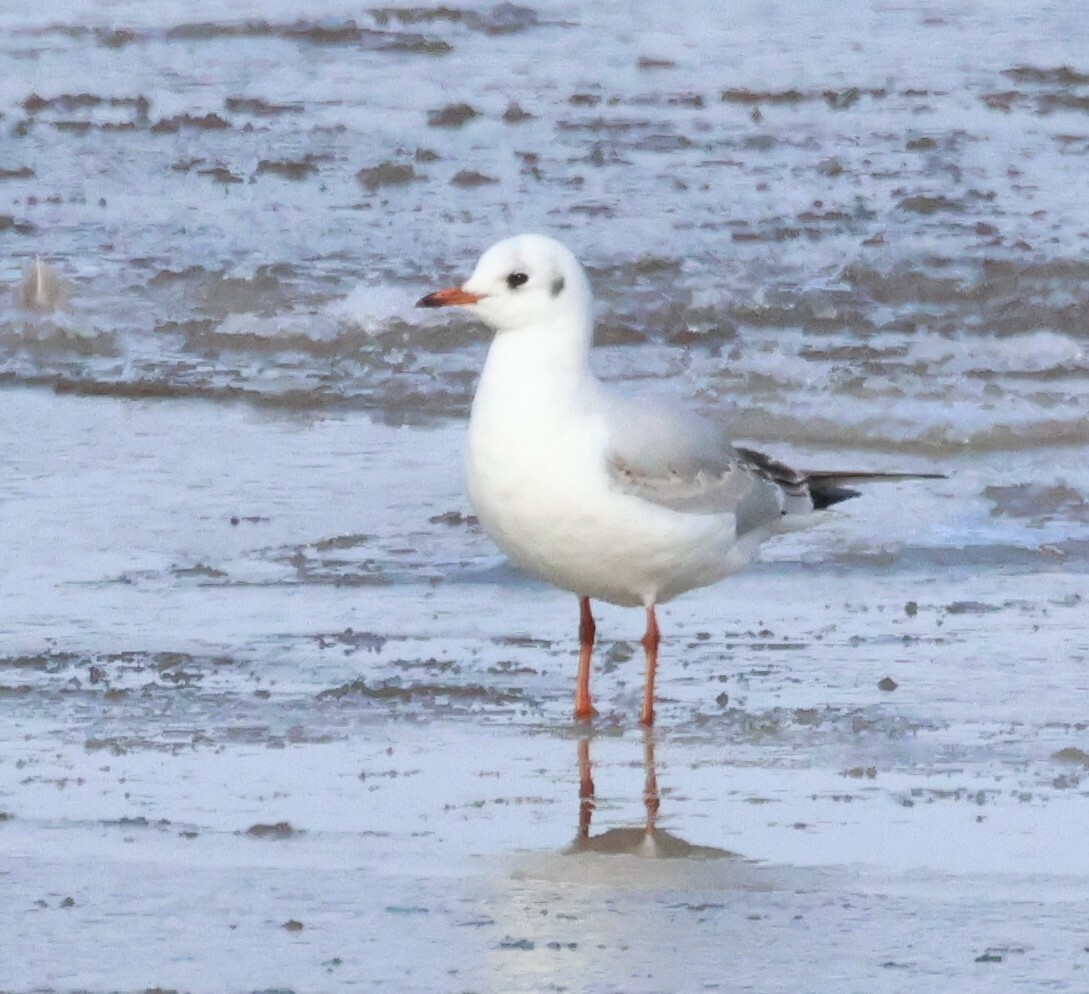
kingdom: Animalia
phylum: Chordata
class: Aves
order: Charadriiformes
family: Laridae
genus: Chroicocephalus
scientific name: Chroicocephalus ridibundus
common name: Black-headed gull
